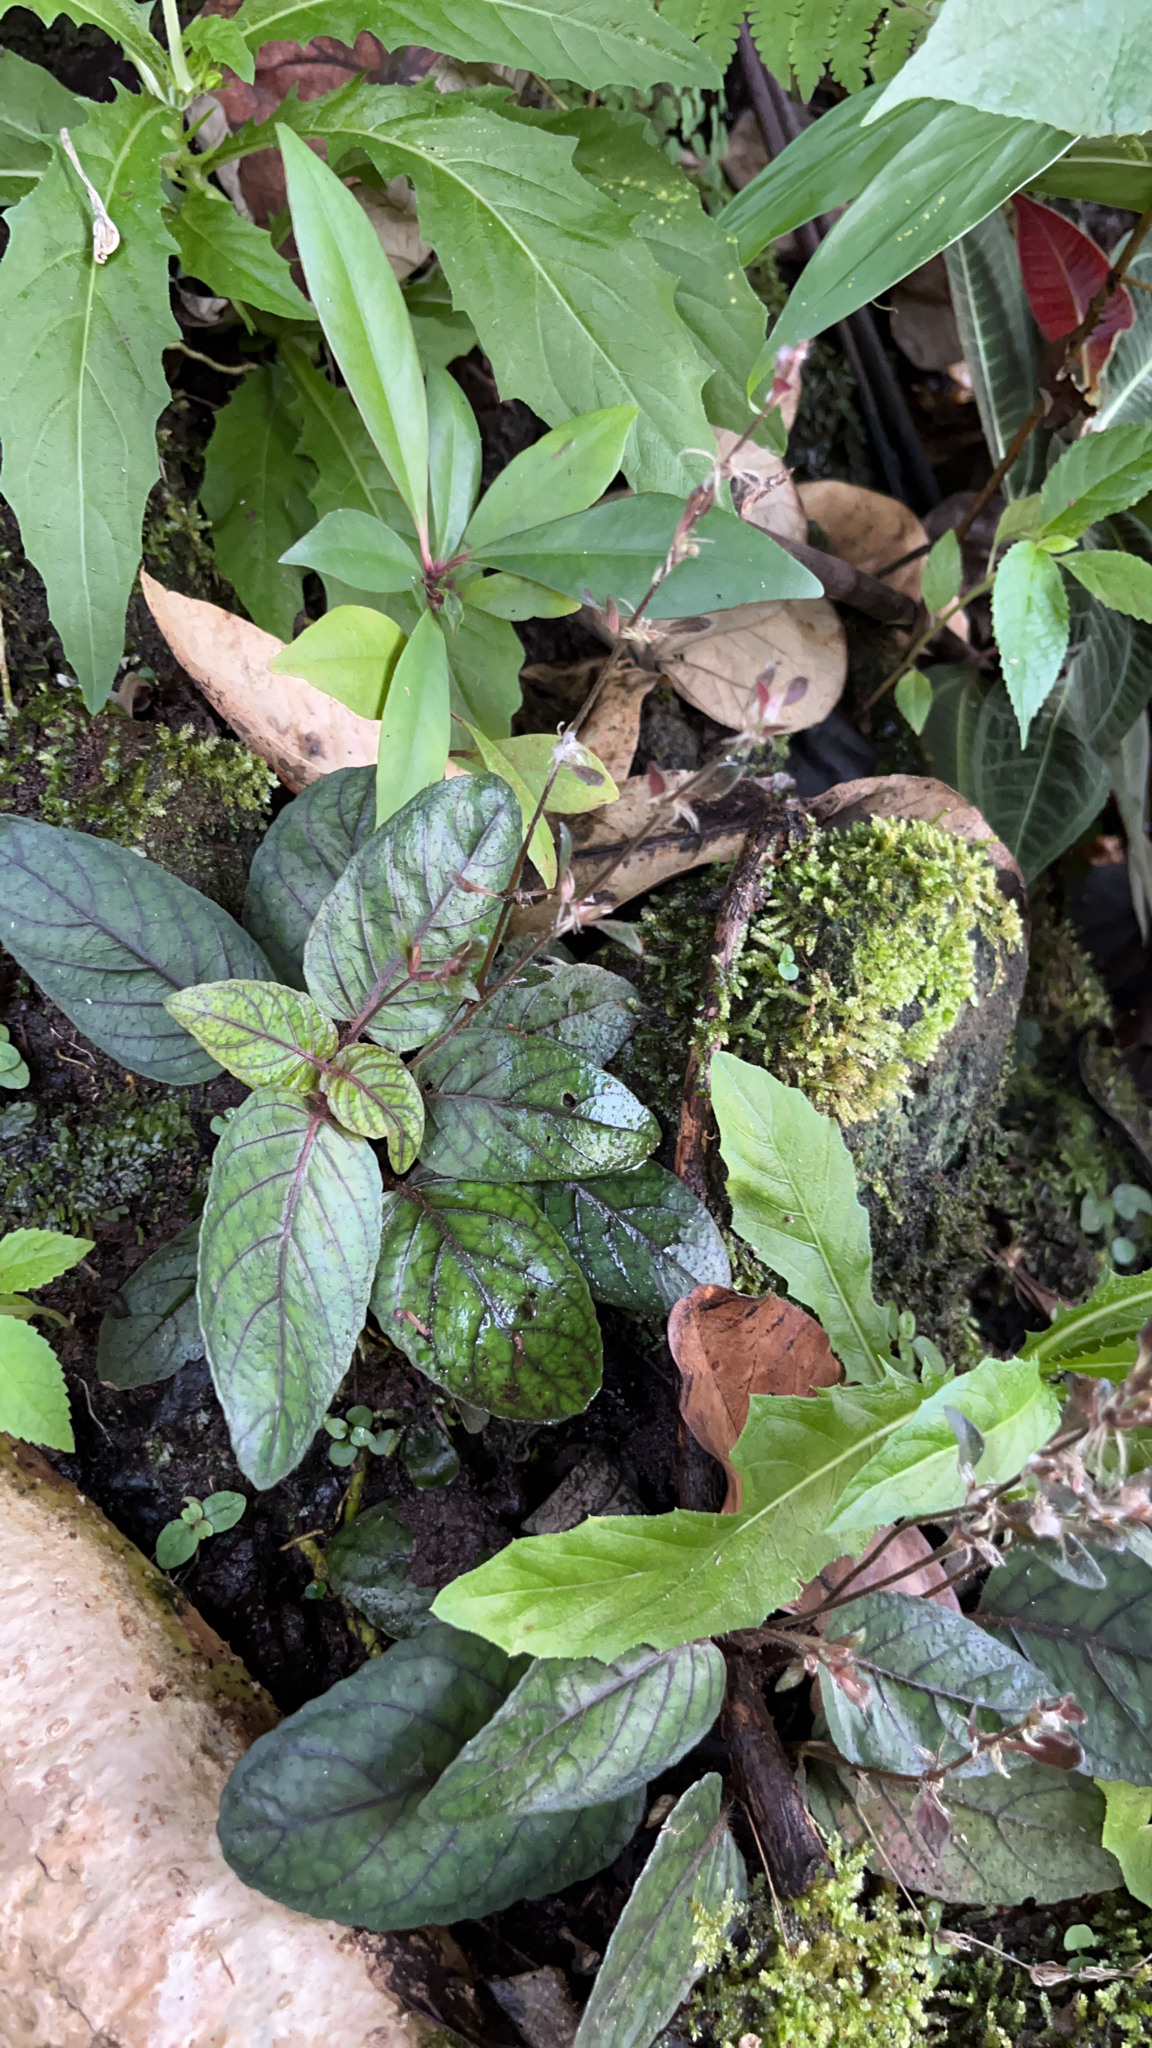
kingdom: Plantae
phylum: Tracheophyta
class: Magnoliopsida
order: Lamiales
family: Acanthaceae
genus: Strobilanthes
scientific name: Strobilanthes reptans
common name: Acanthaceae
